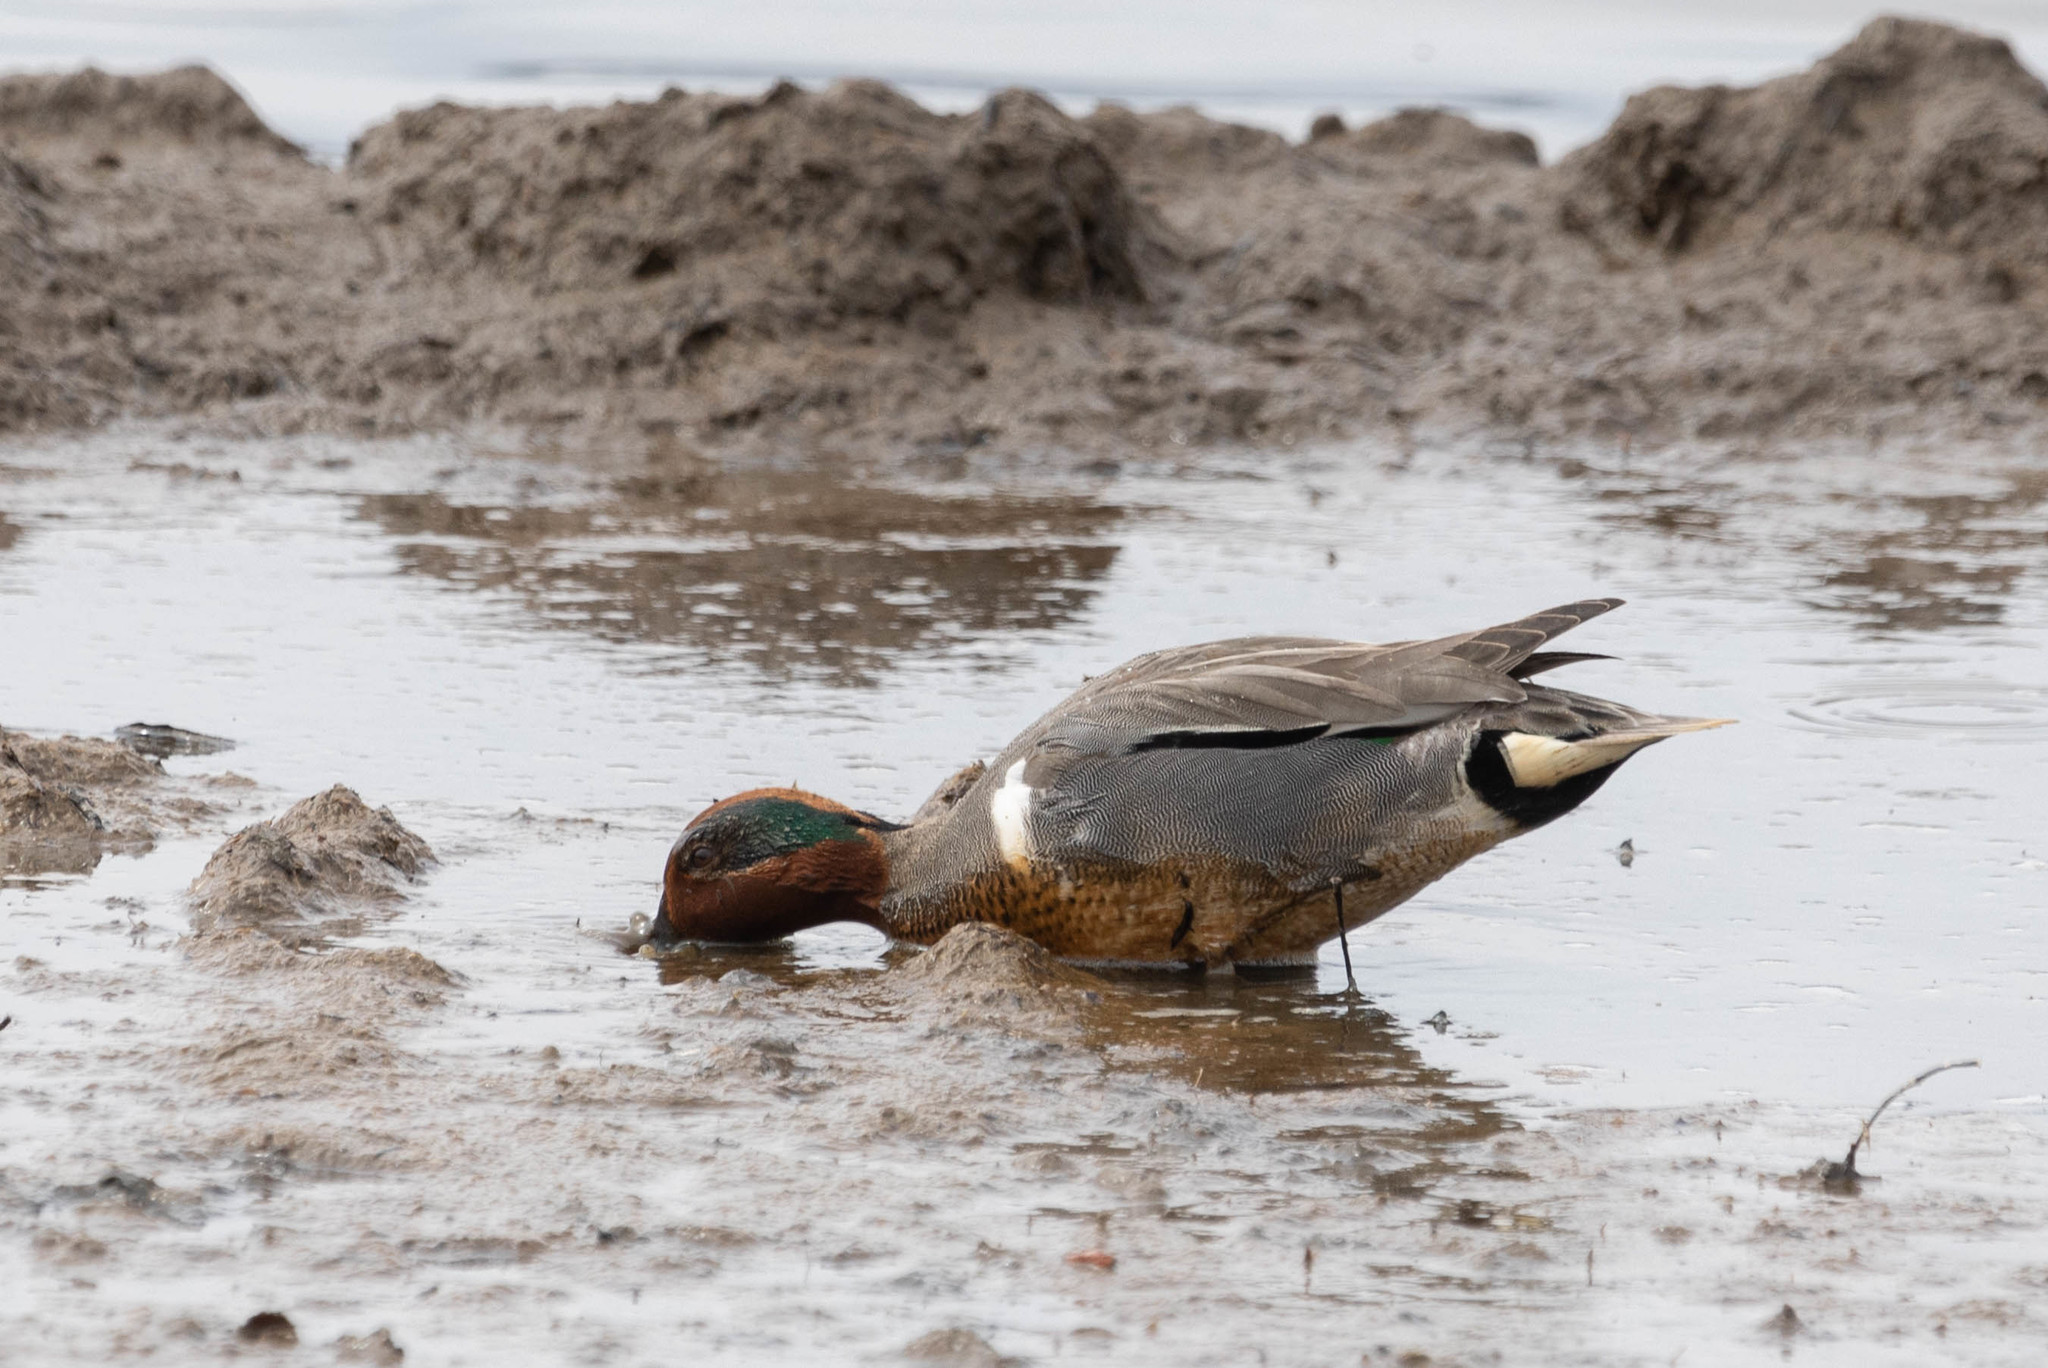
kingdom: Animalia
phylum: Chordata
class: Aves
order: Anseriformes
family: Anatidae
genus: Anas
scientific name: Anas carolinensis
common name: Green-winged teal
